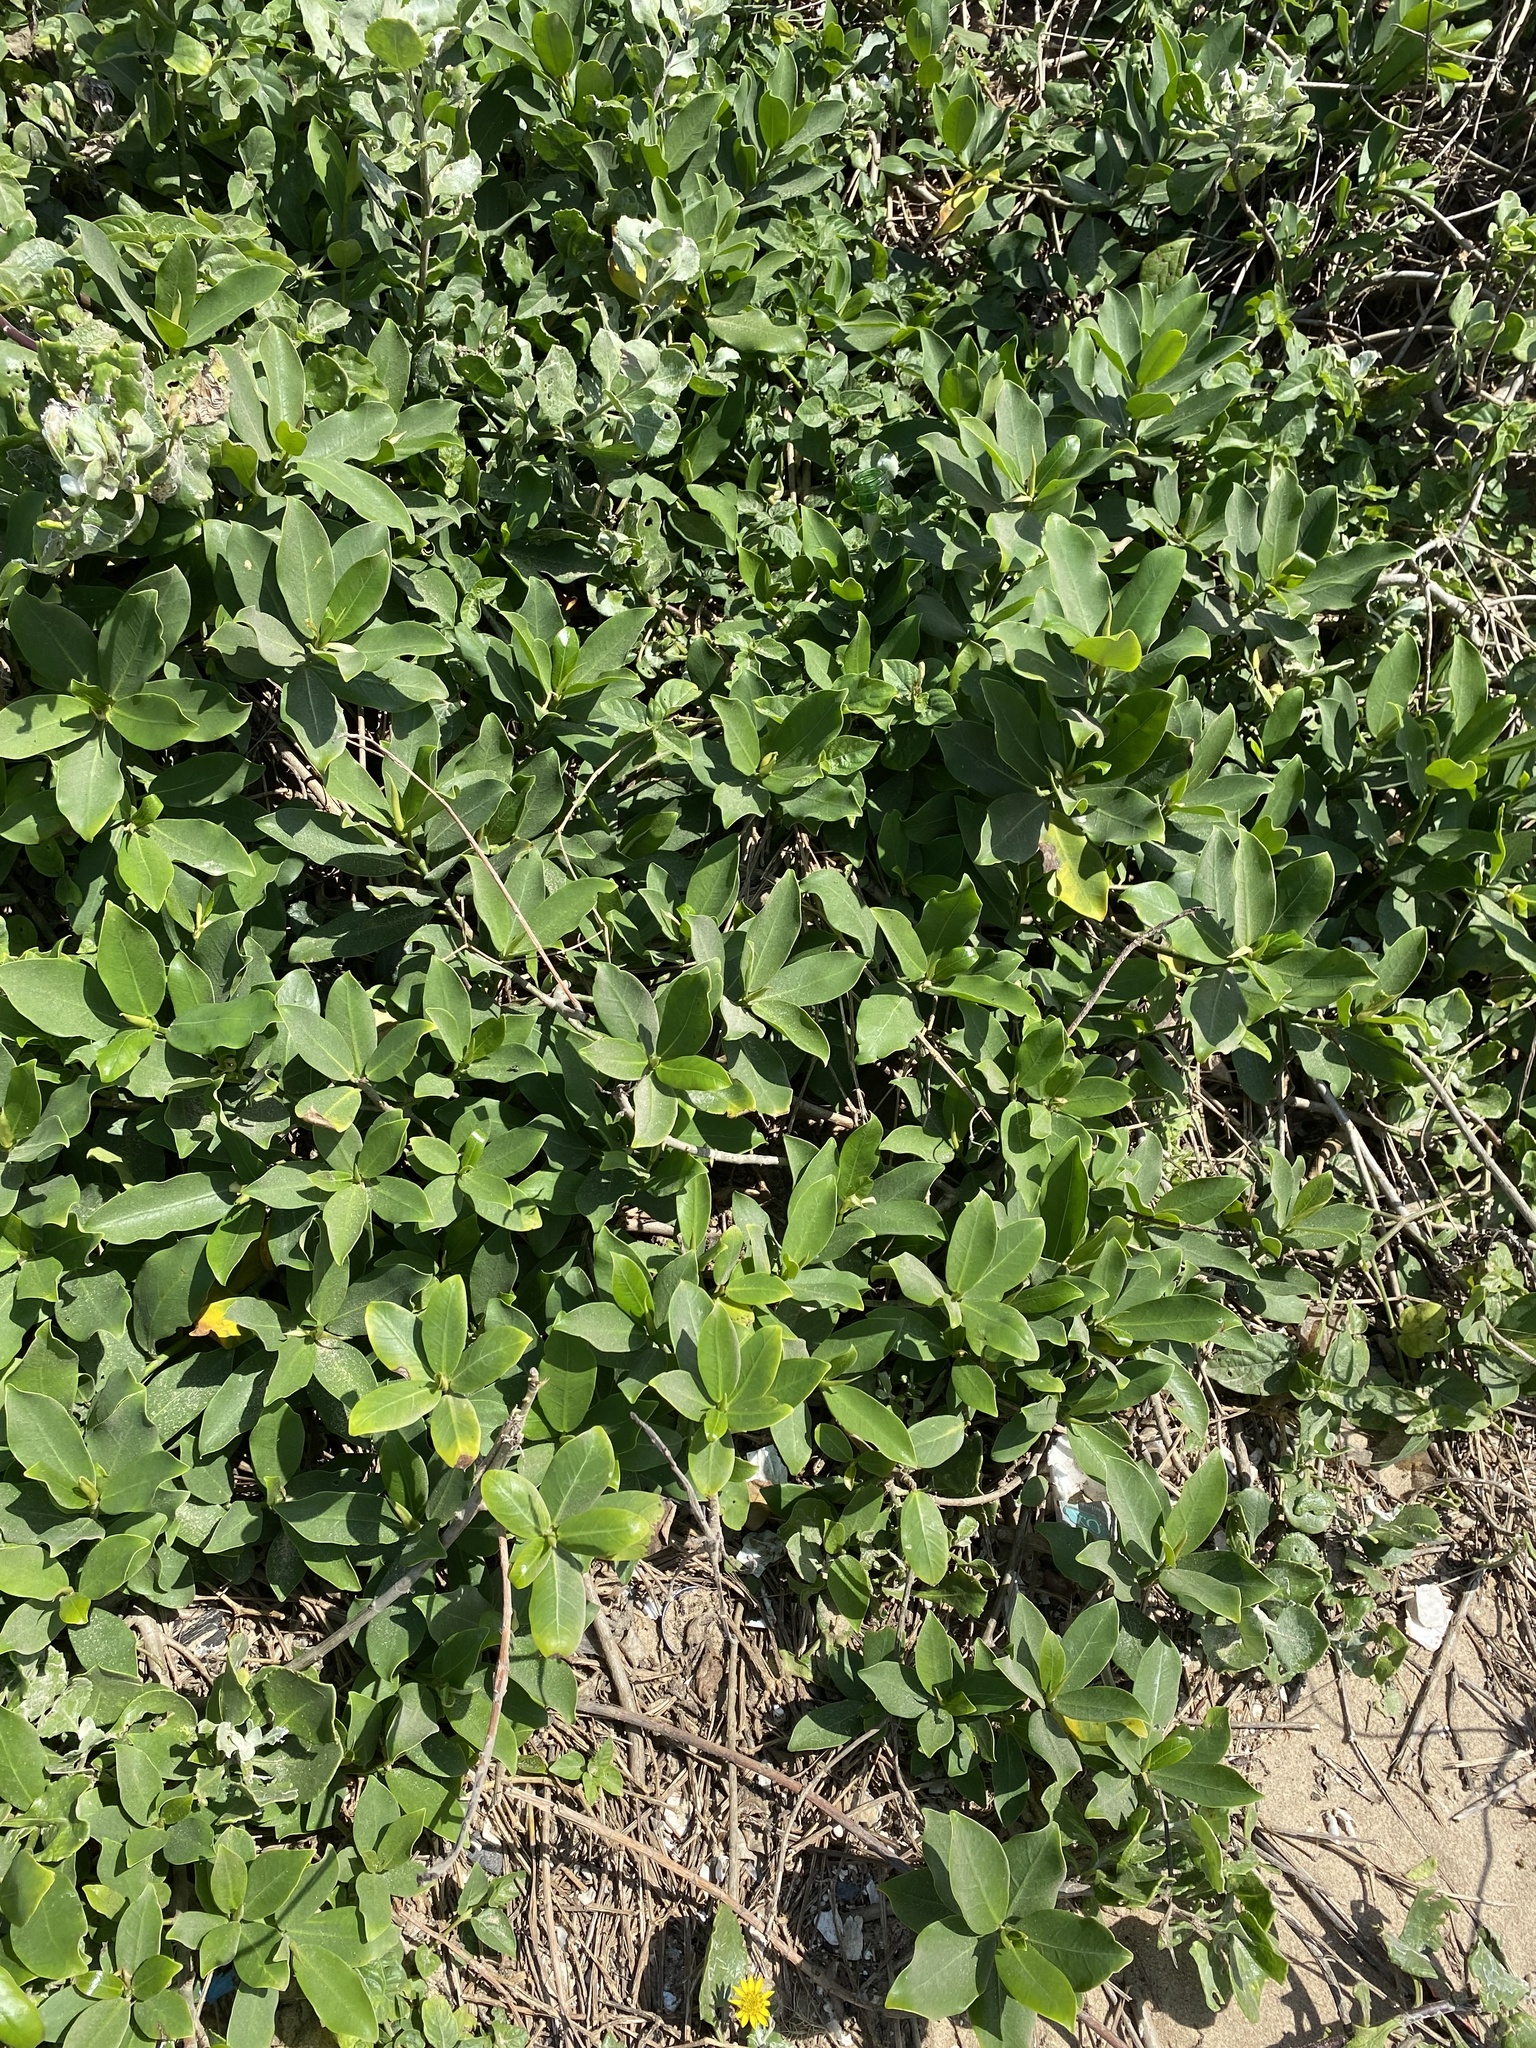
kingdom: Plantae
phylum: Tracheophyta
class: Magnoliopsida
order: Rosales
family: Moraceae
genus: Ficus
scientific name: Ficus burtt-davyi
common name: Scrambling fig
